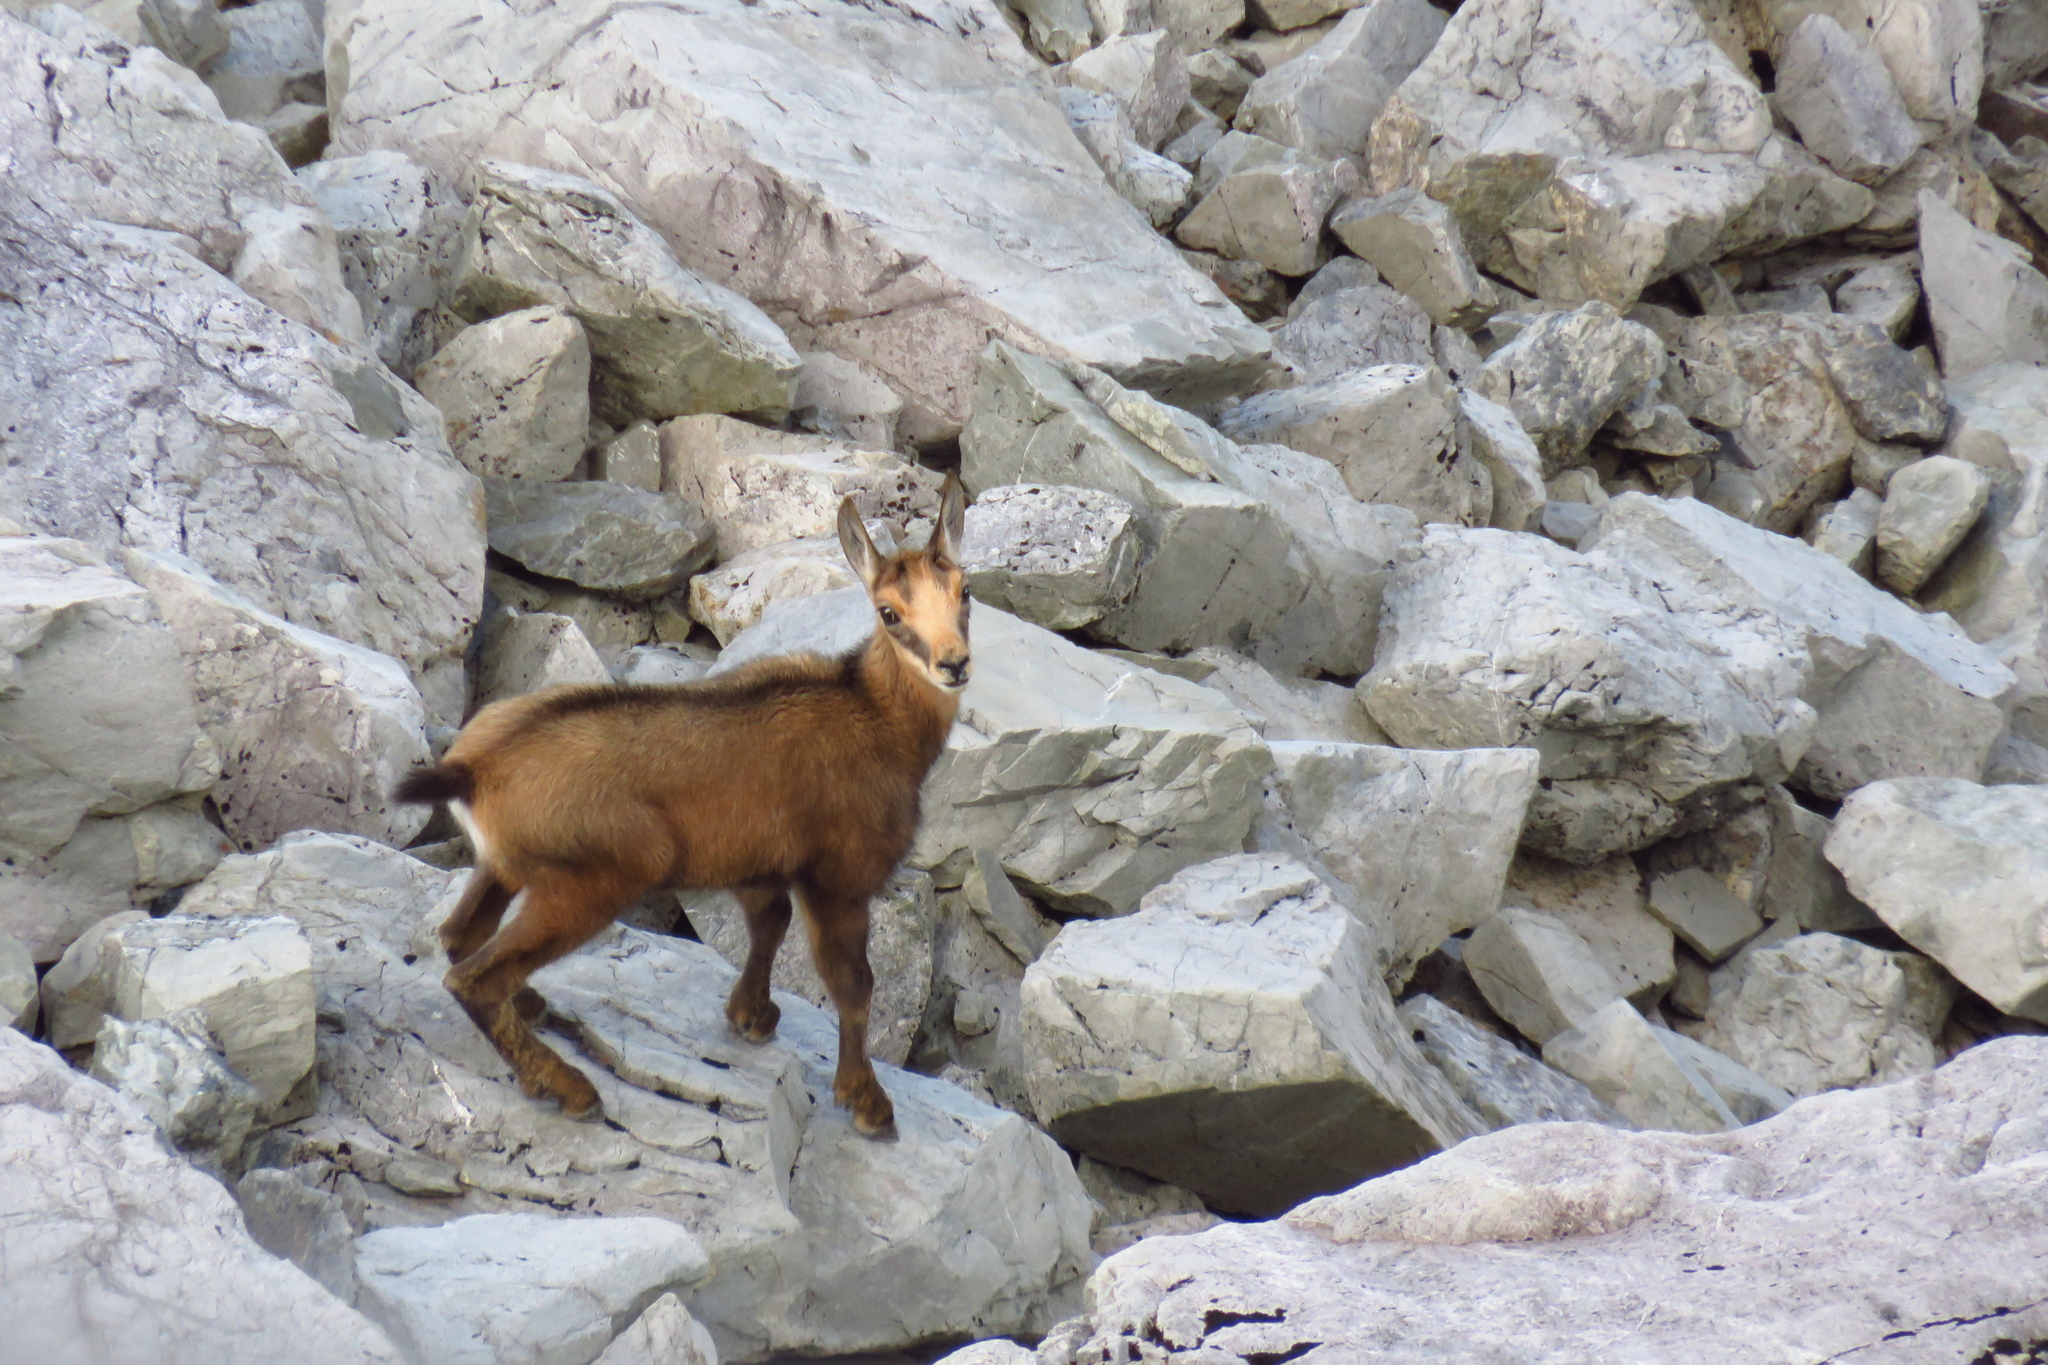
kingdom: Animalia
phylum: Chordata
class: Mammalia
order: Artiodactyla
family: Bovidae
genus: Rupicapra
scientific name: Rupicapra rupicapra
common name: Chamois
